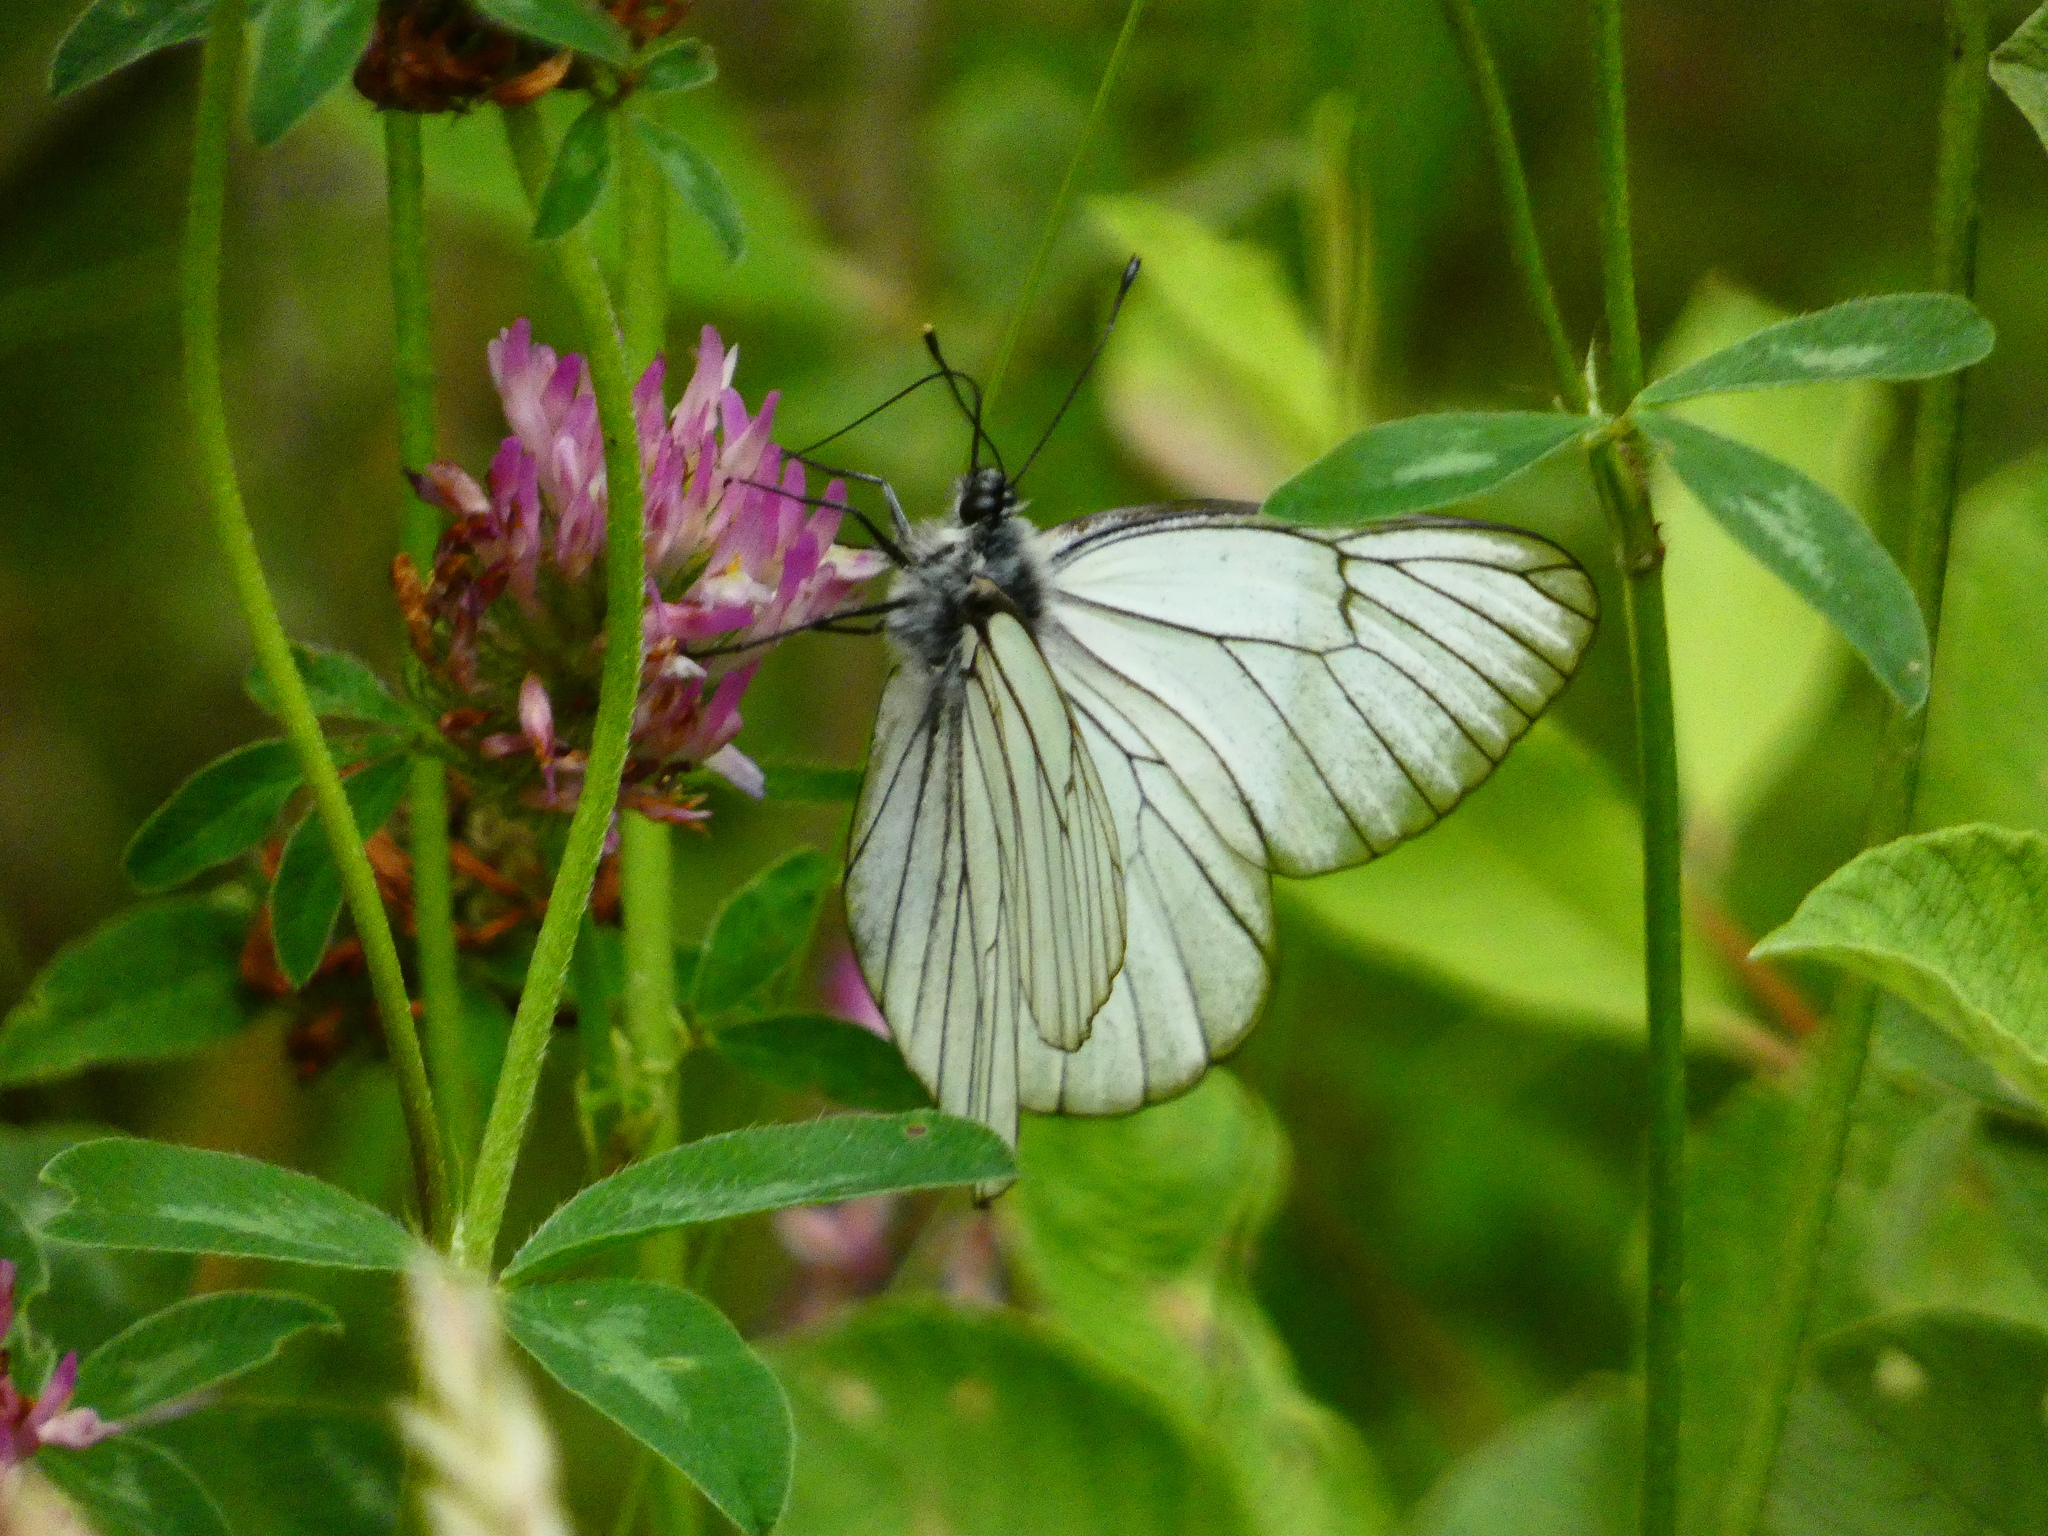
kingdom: Animalia
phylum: Arthropoda
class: Insecta
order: Lepidoptera
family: Pieridae
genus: Aporia
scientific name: Aporia crataegi
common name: Black-veined white
